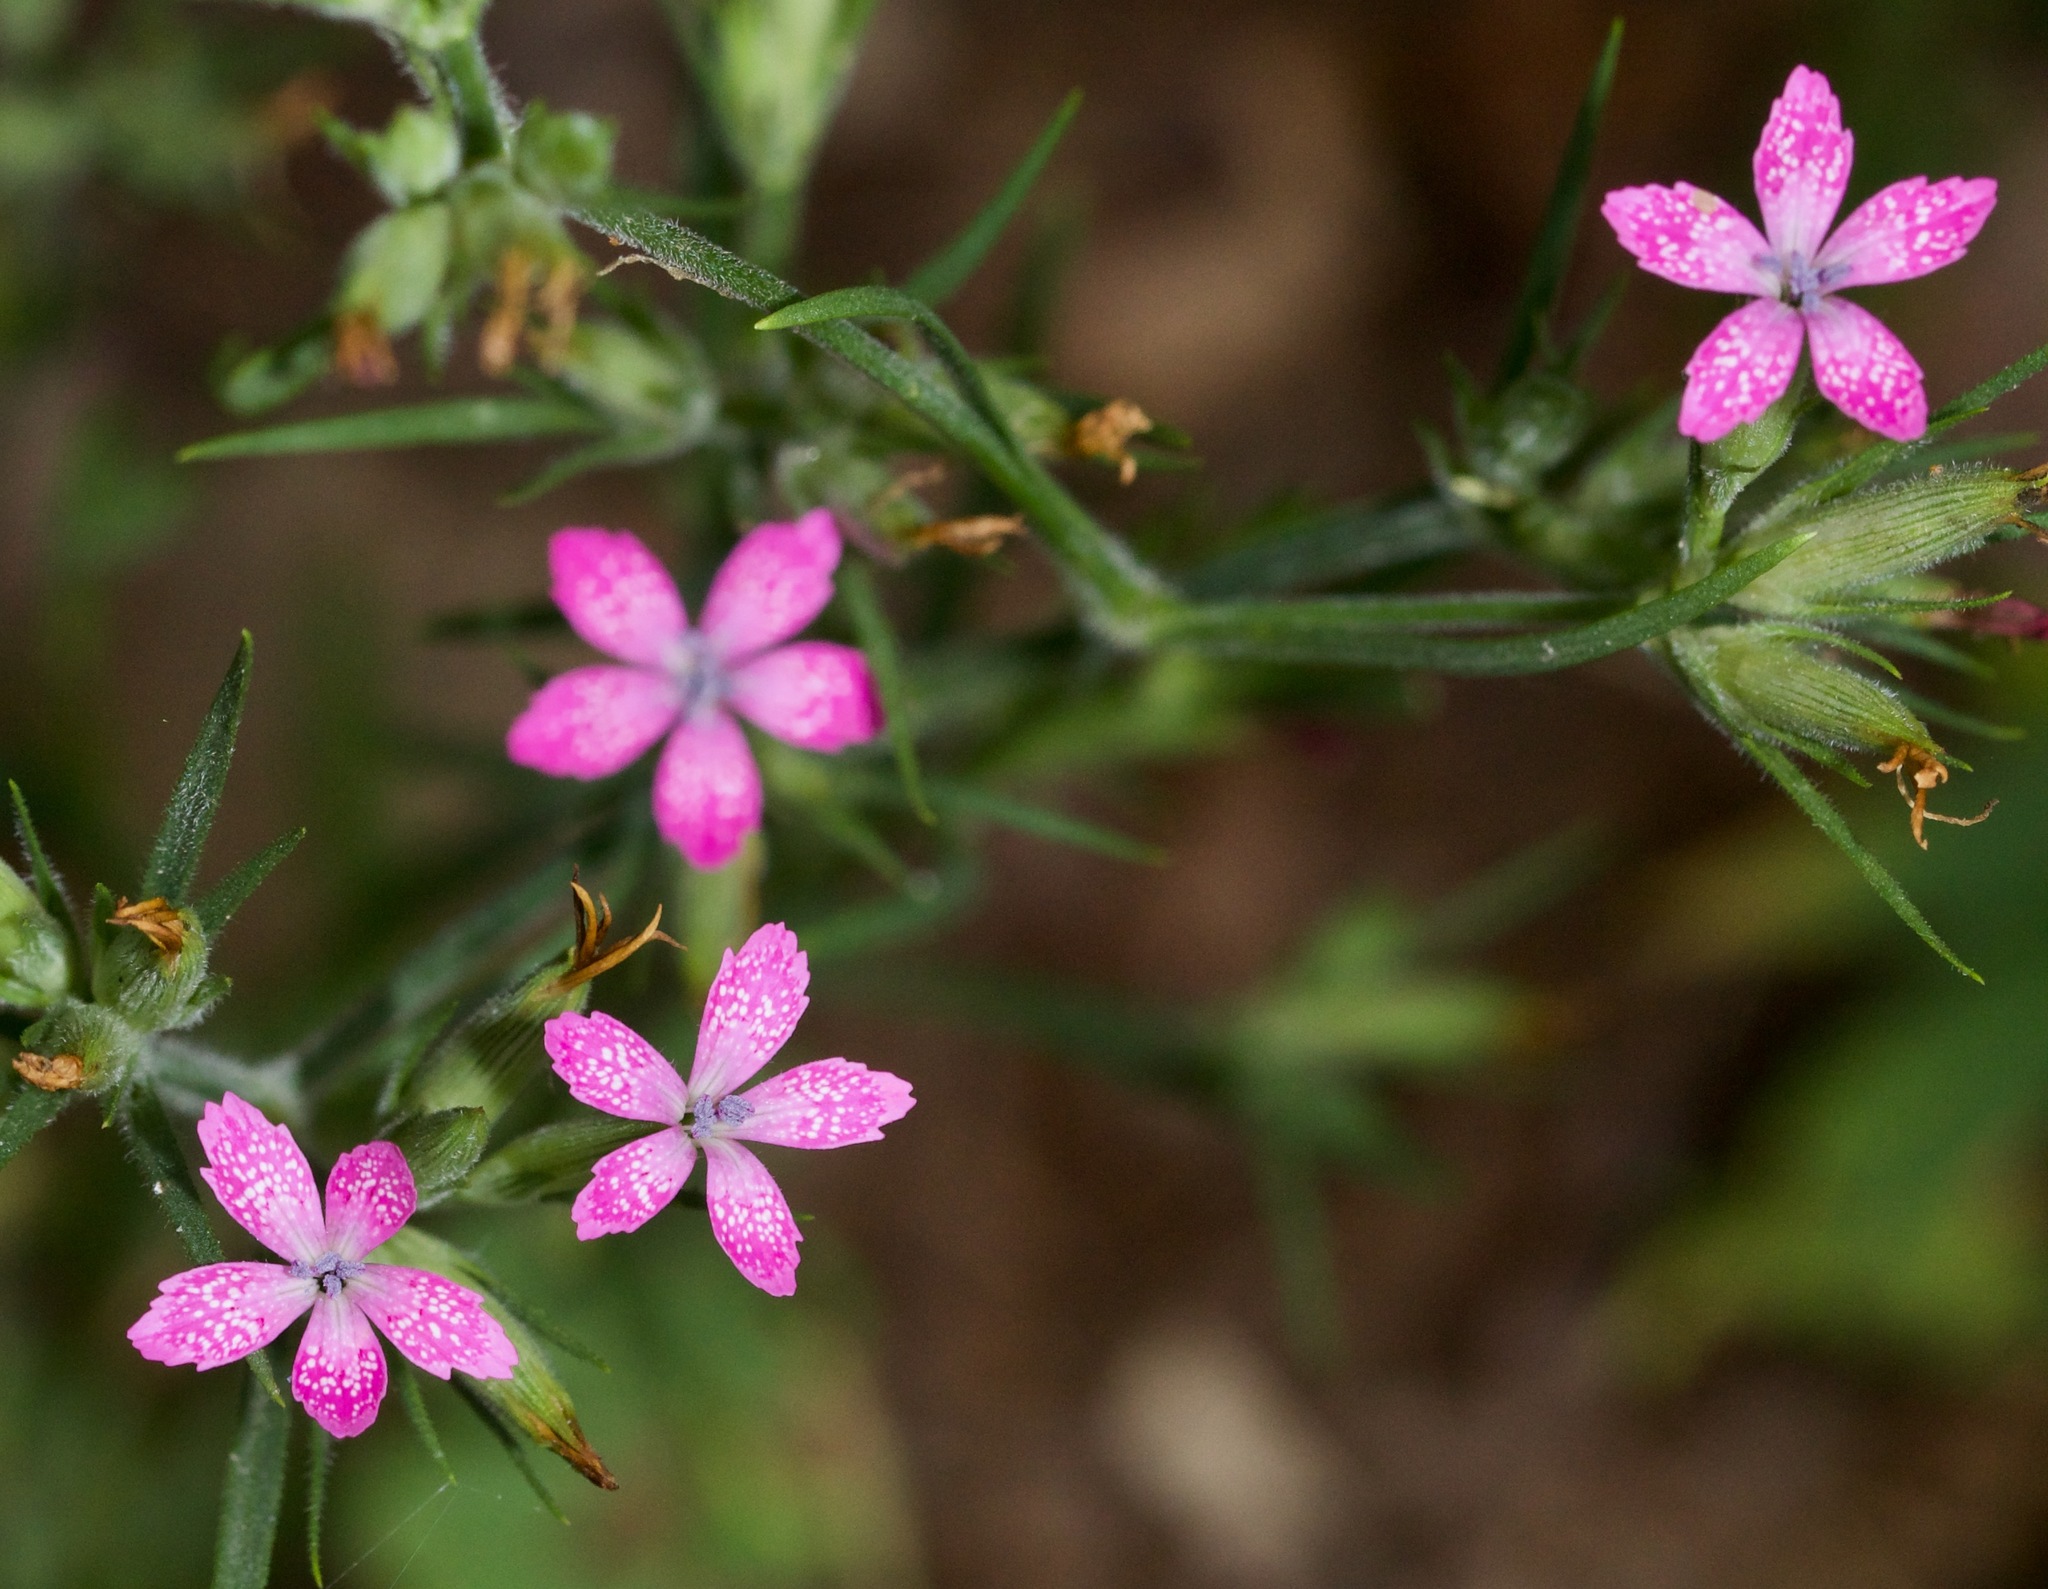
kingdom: Plantae
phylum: Tracheophyta
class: Magnoliopsida
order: Caryophyllales
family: Caryophyllaceae
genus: Dianthus
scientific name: Dianthus armeria
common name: Deptford pink
